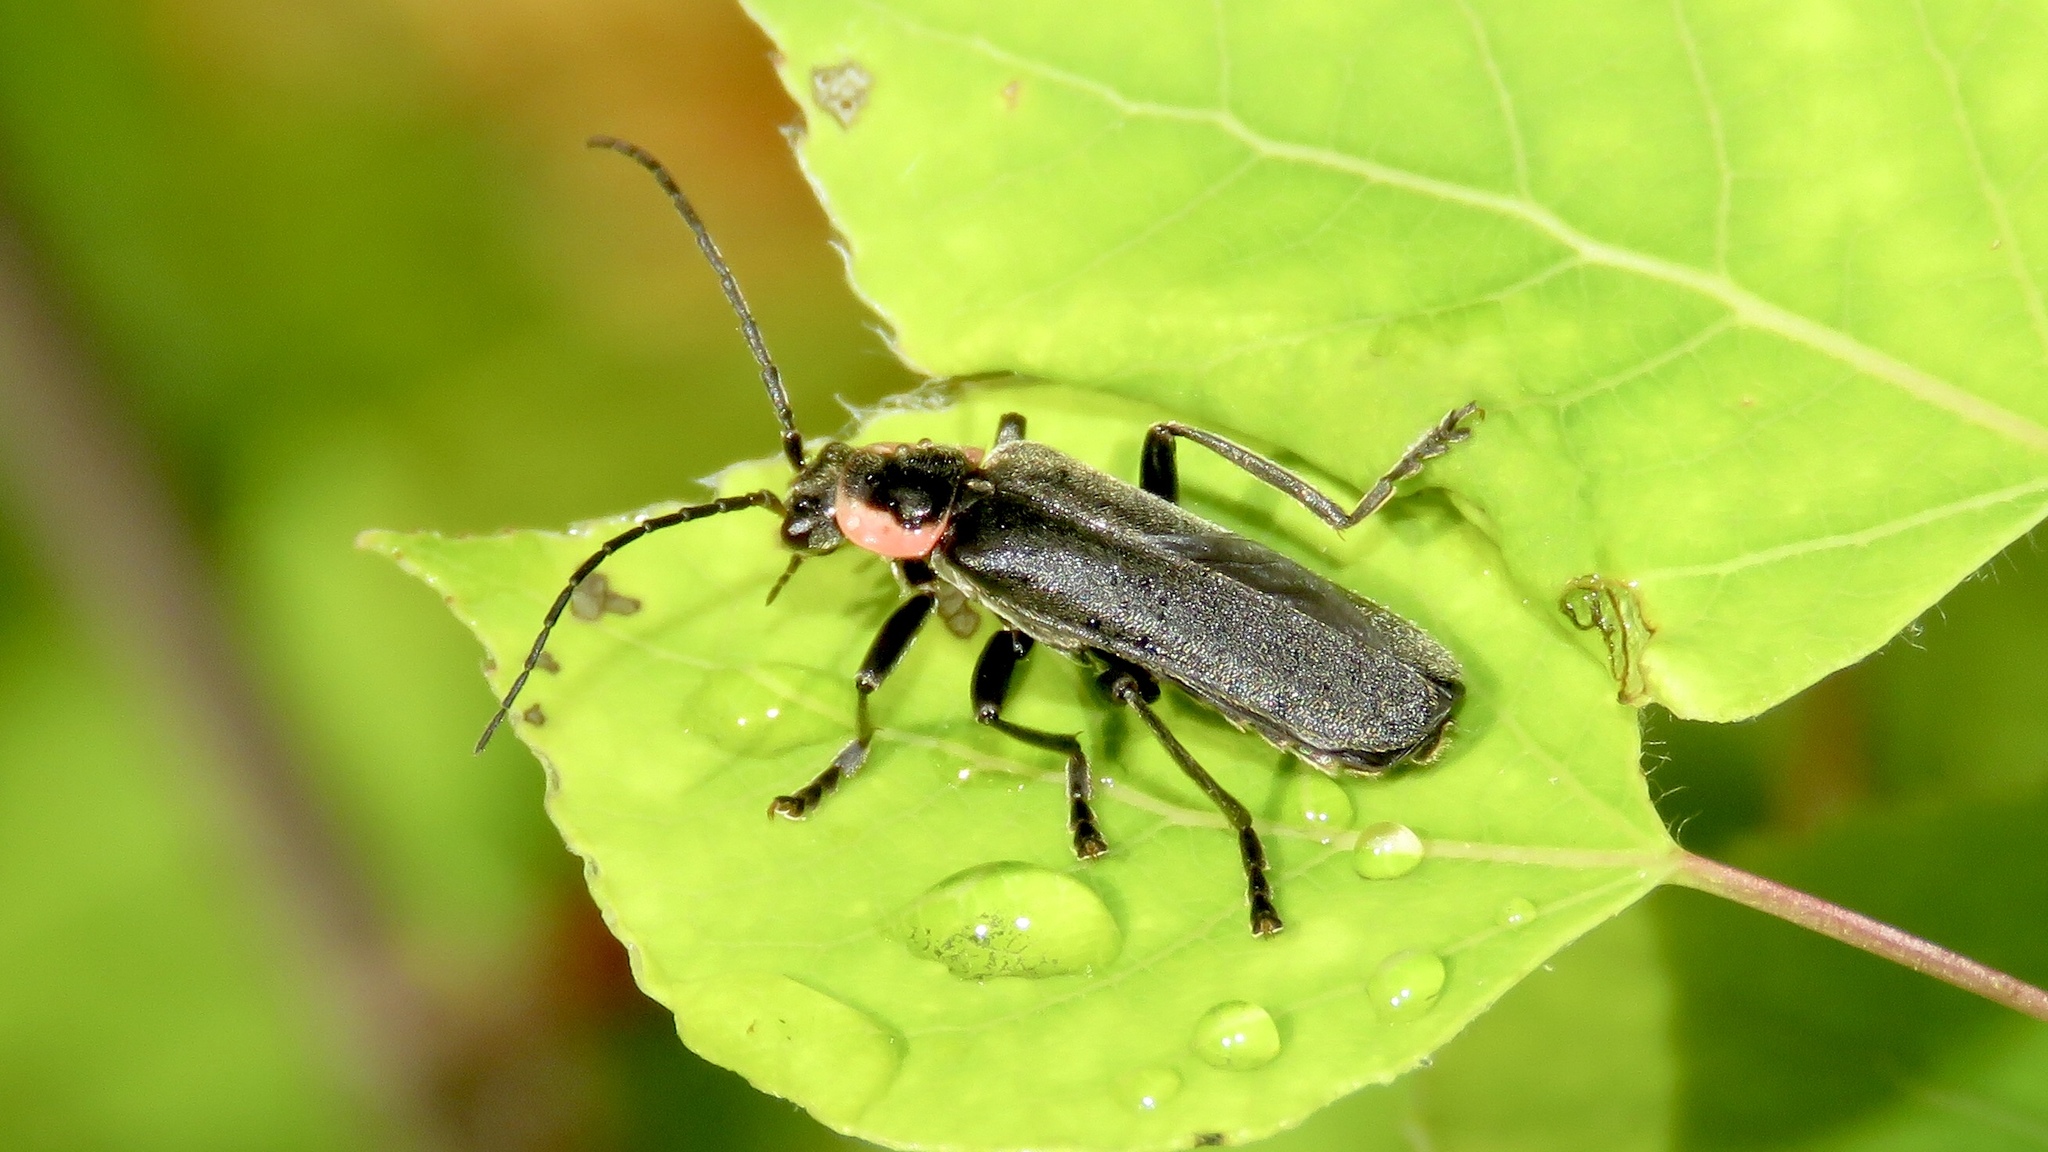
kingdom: Animalia
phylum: Arthropoda
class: Insecta
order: Coleoptera
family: Cantharidae
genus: Rhaxonycha
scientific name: Rhaxonycha carolina
